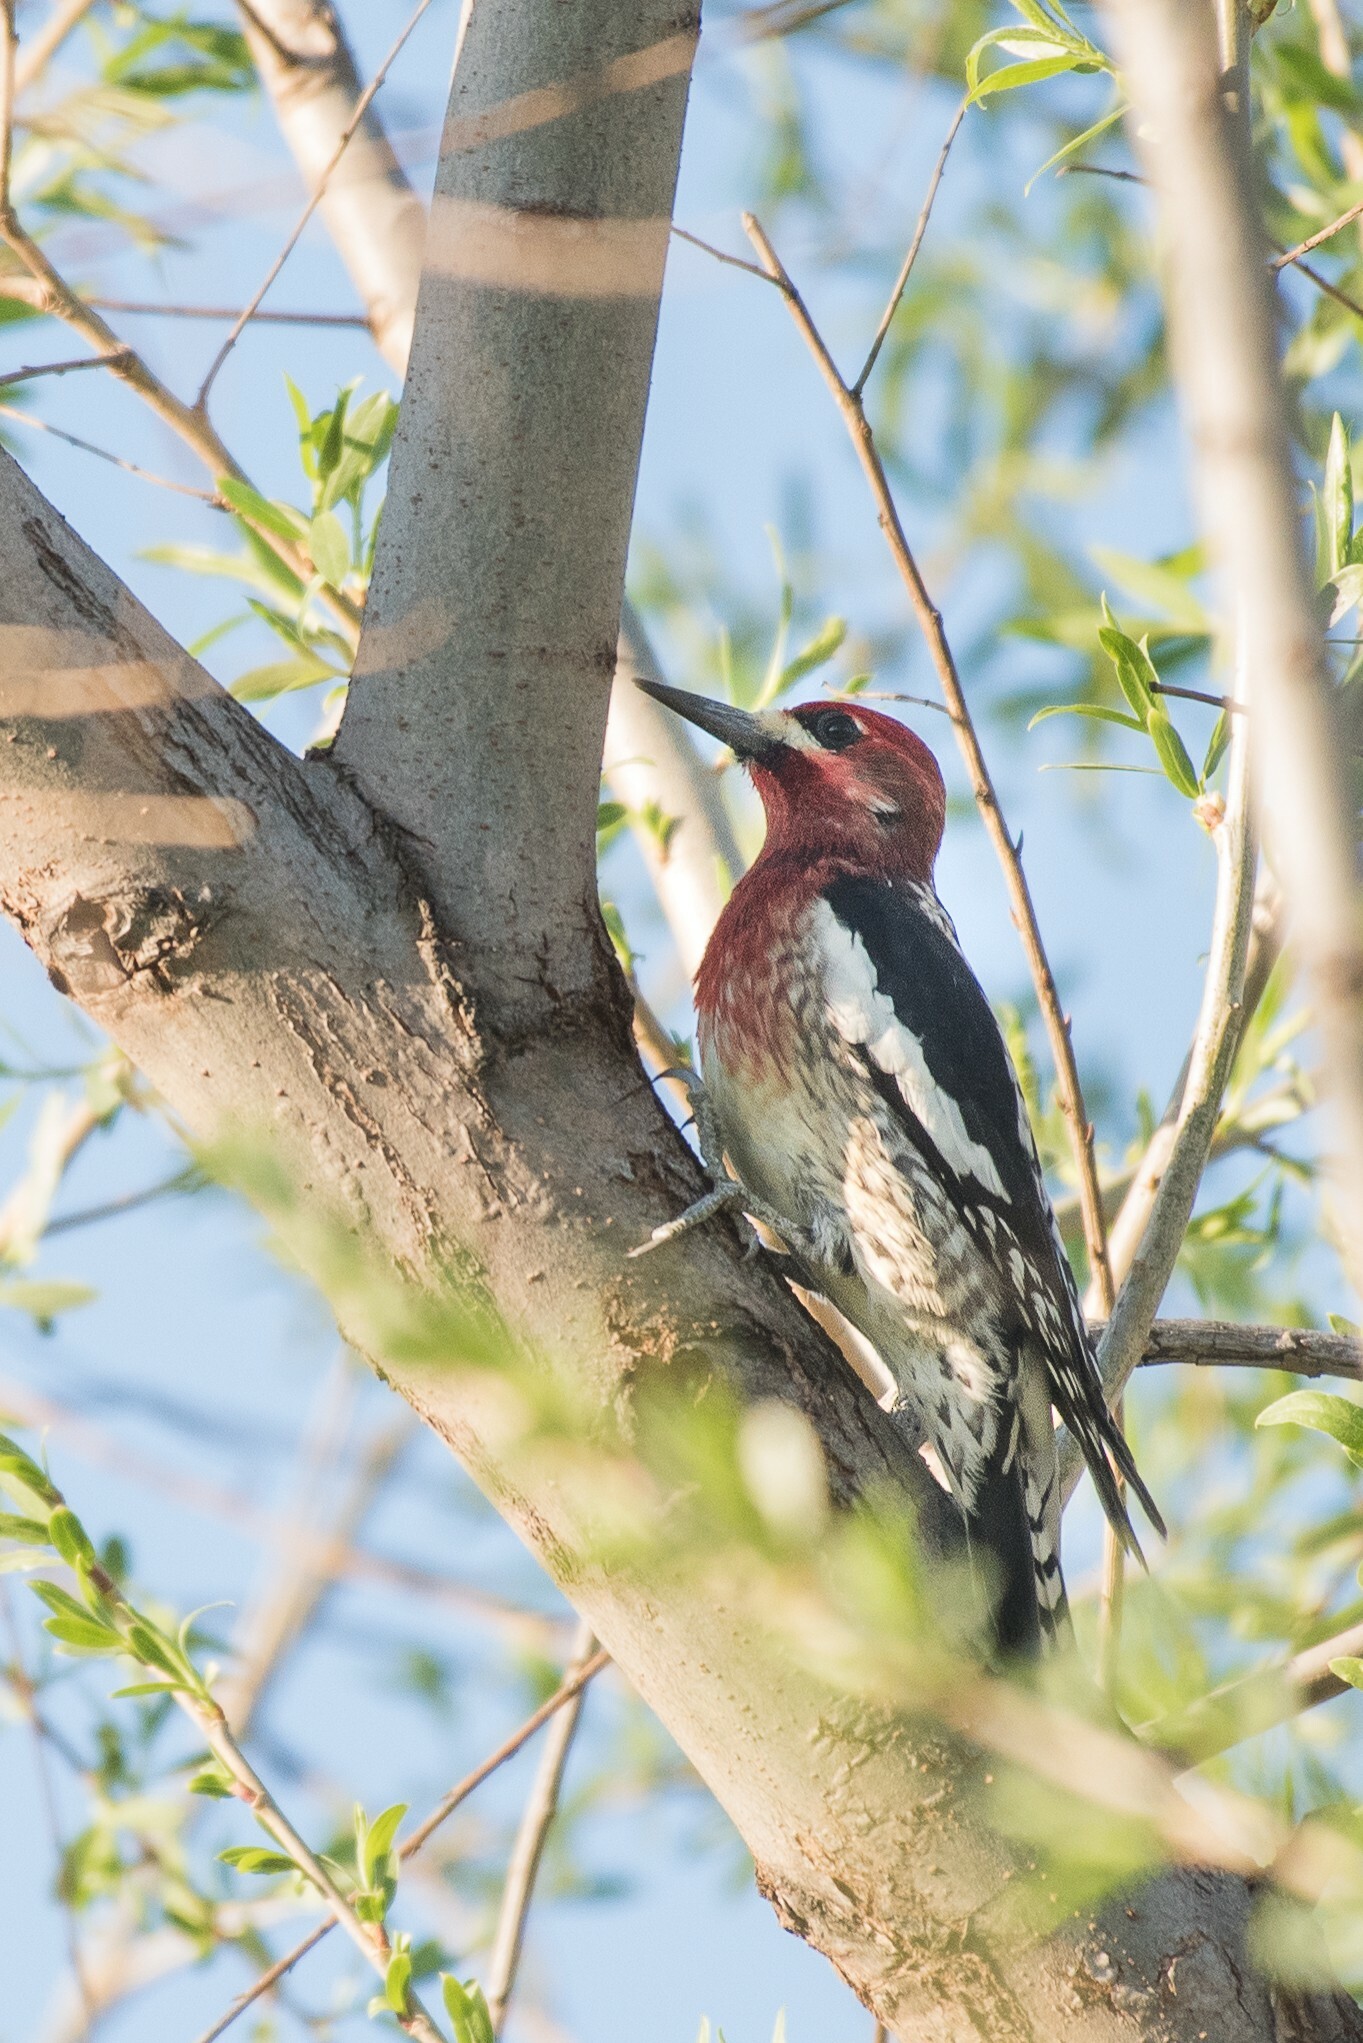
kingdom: Animalia
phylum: Chordata
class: Aves
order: Piciformes
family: Picidae
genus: Sphyrapicus
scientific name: Sphyrapicus ruber
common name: Red-breasted sapsucker
